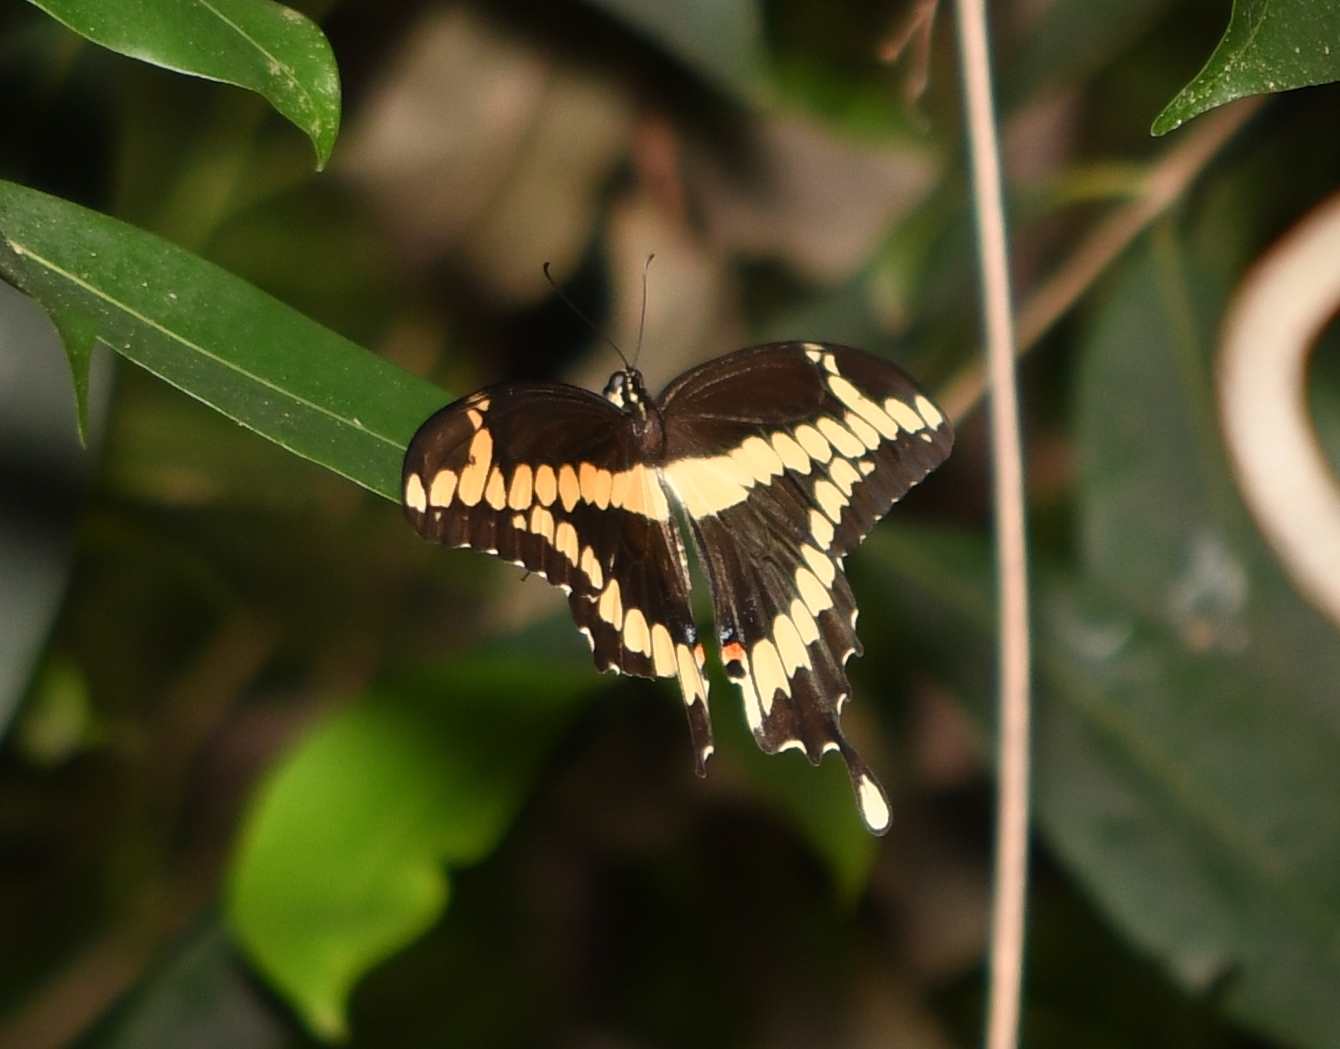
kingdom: Animalia
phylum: Arthropoda
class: Insecta
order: Lepidoptera
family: Papilionidae
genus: Papilio
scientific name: Papilio cresphontes
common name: Giant swallowtail
